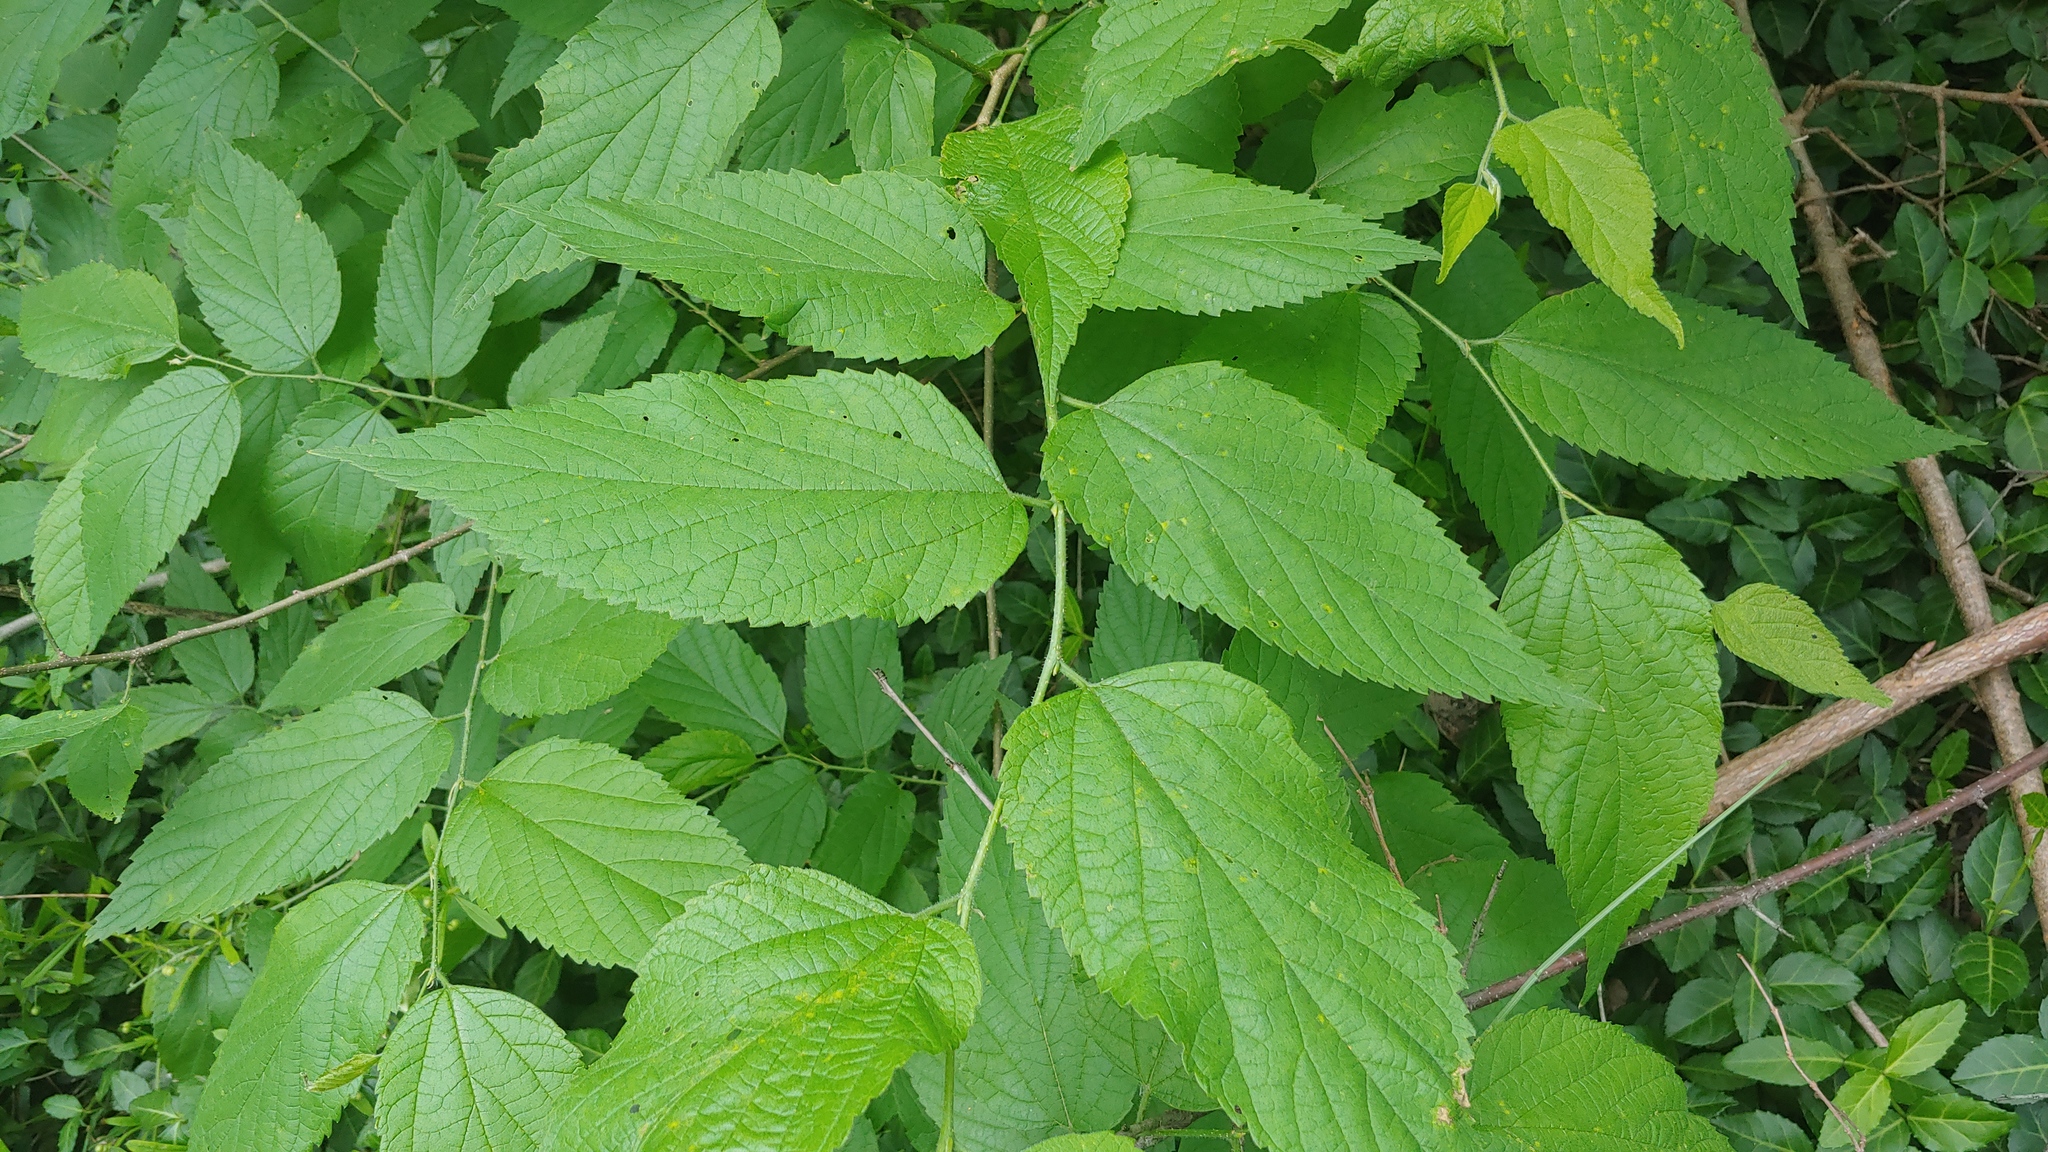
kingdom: Plantae
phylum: Tracheophyta
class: Magnoliopsida
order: Rosales
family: Cannabaceae
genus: Celtis
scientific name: Celtis occidentalis
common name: Common hackberry
